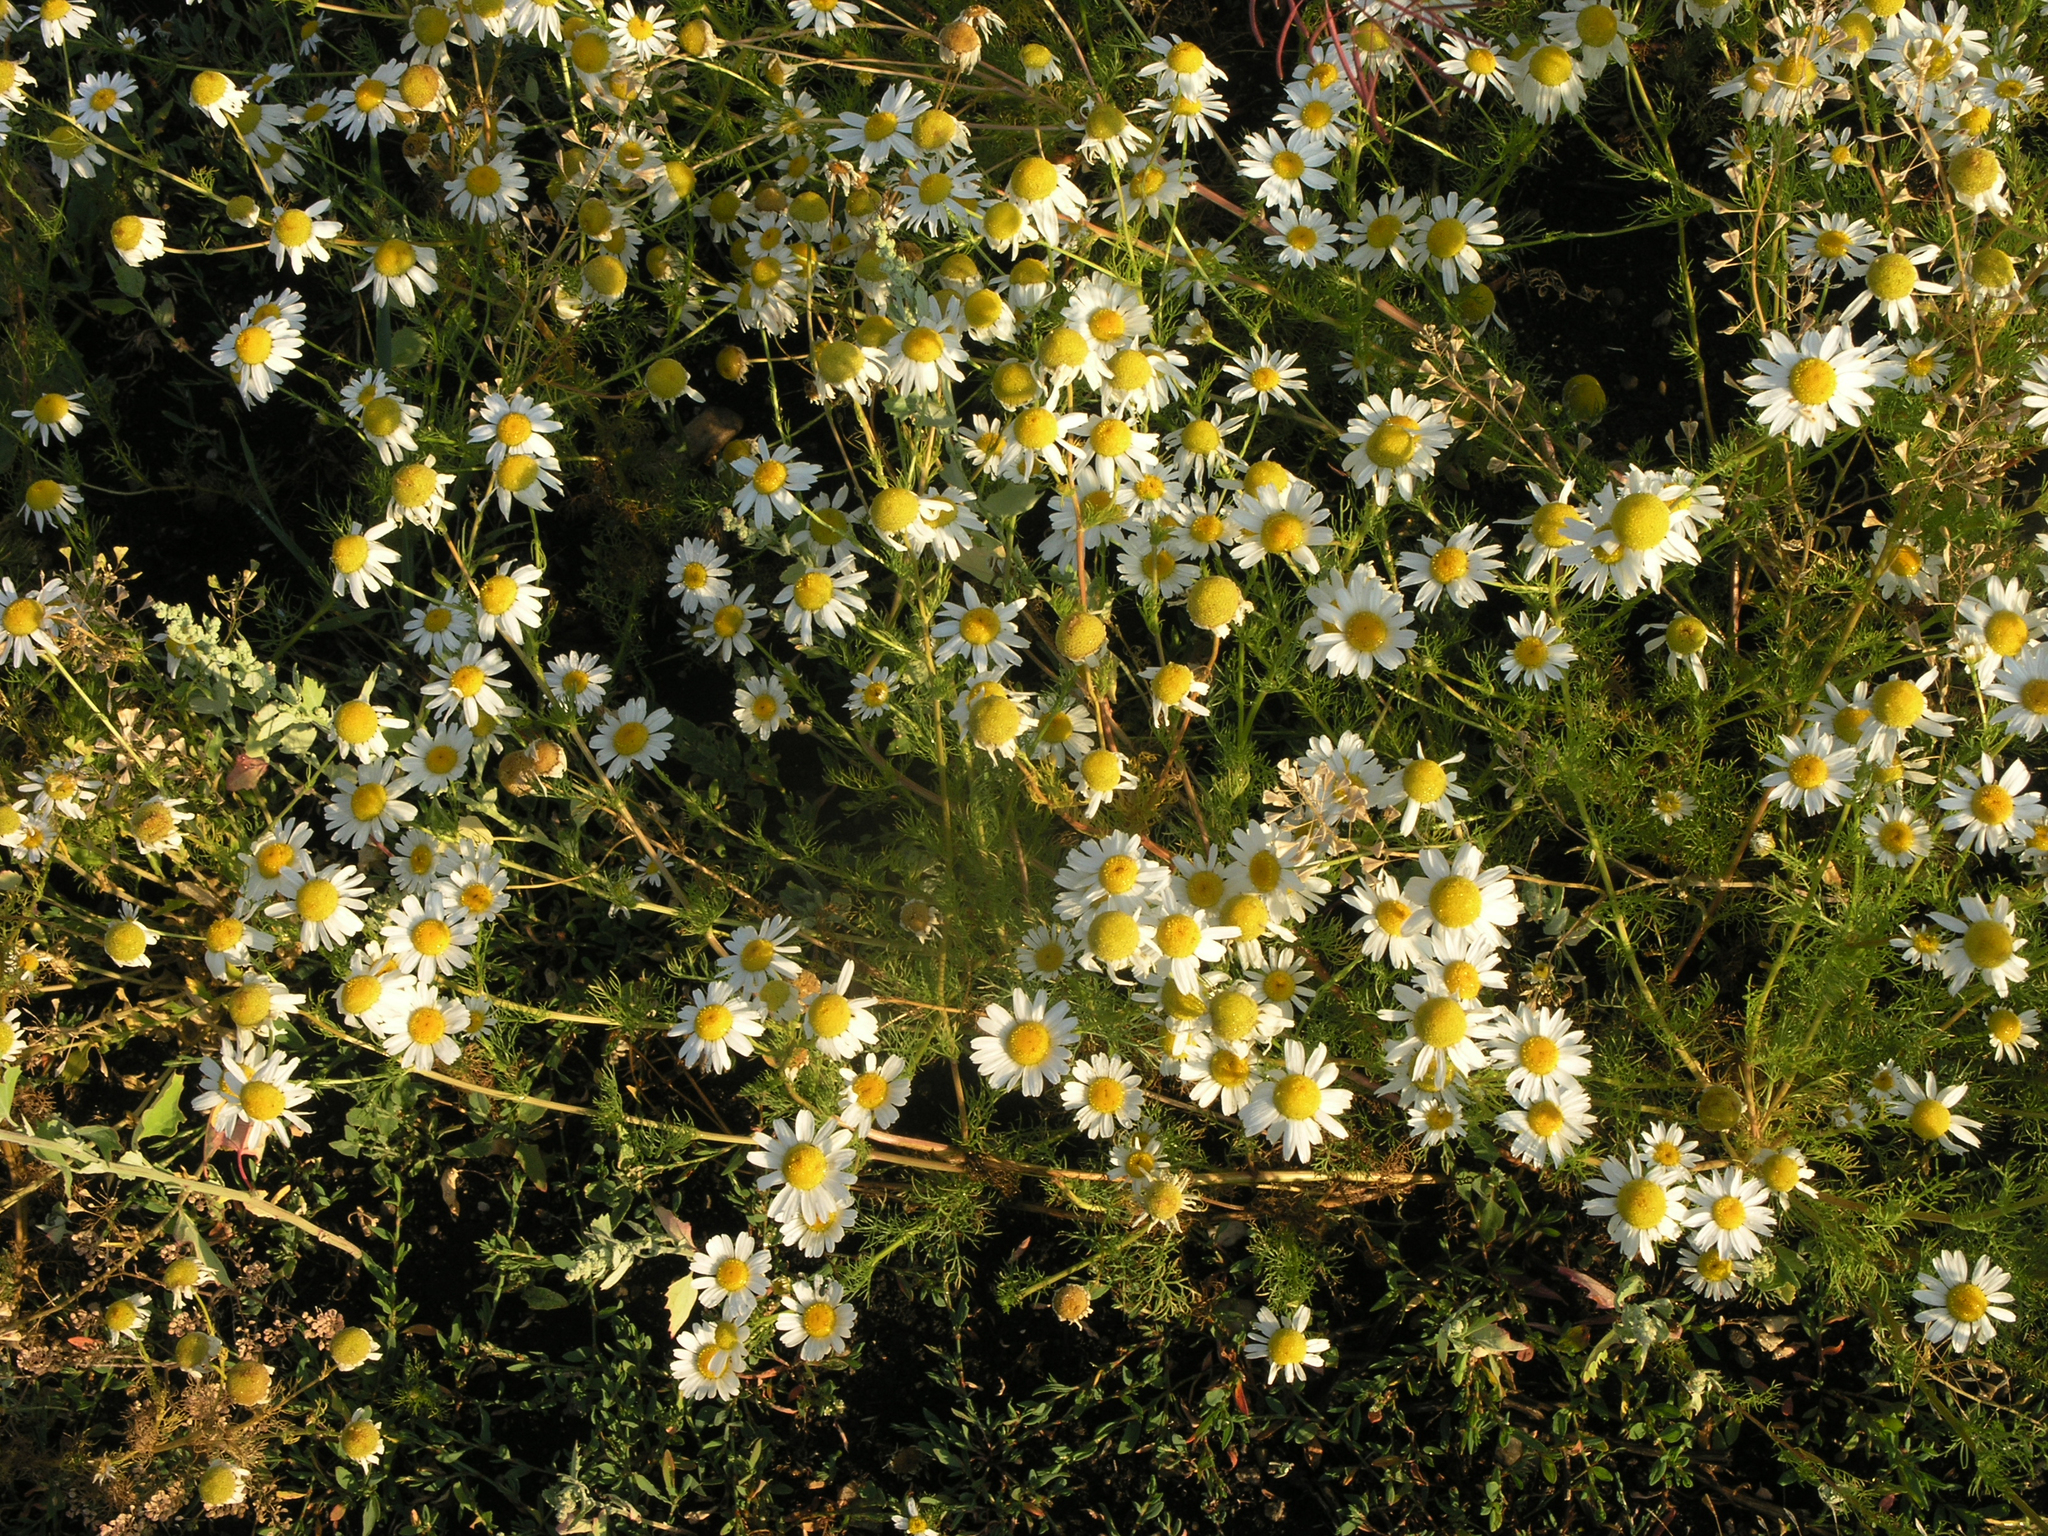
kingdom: Plantae
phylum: Tracheophyta
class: Magnoliopsida
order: Asterales
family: Asteraceae
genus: Tripleurospermum
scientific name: Tripleurospermum inodorum
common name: Scentless mayweed
